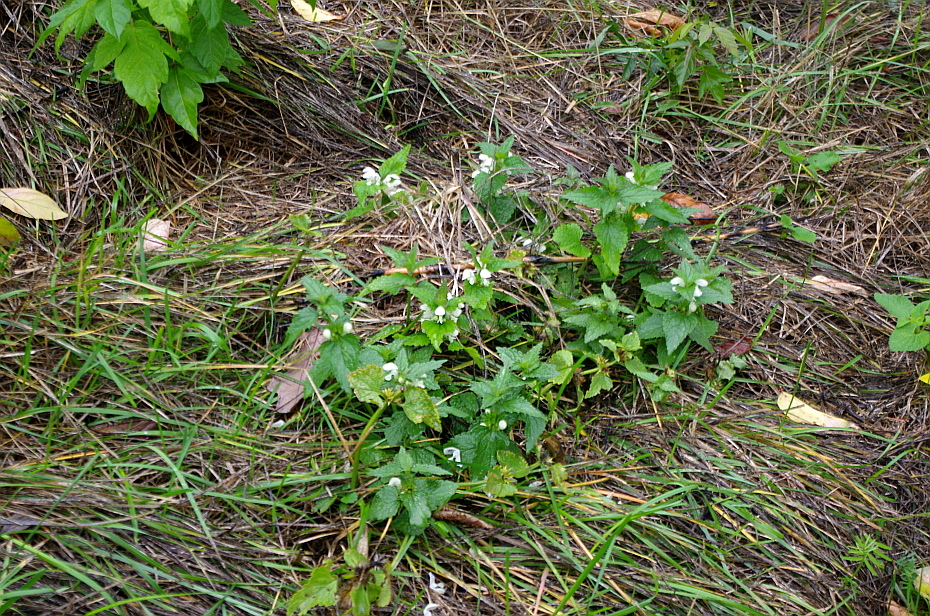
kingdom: Plantae
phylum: Tracheophyta
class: Magnoliopsida
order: Lamiales
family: Lamiaceae
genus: Lamium
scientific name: Lamium album
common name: White dead-nettle
